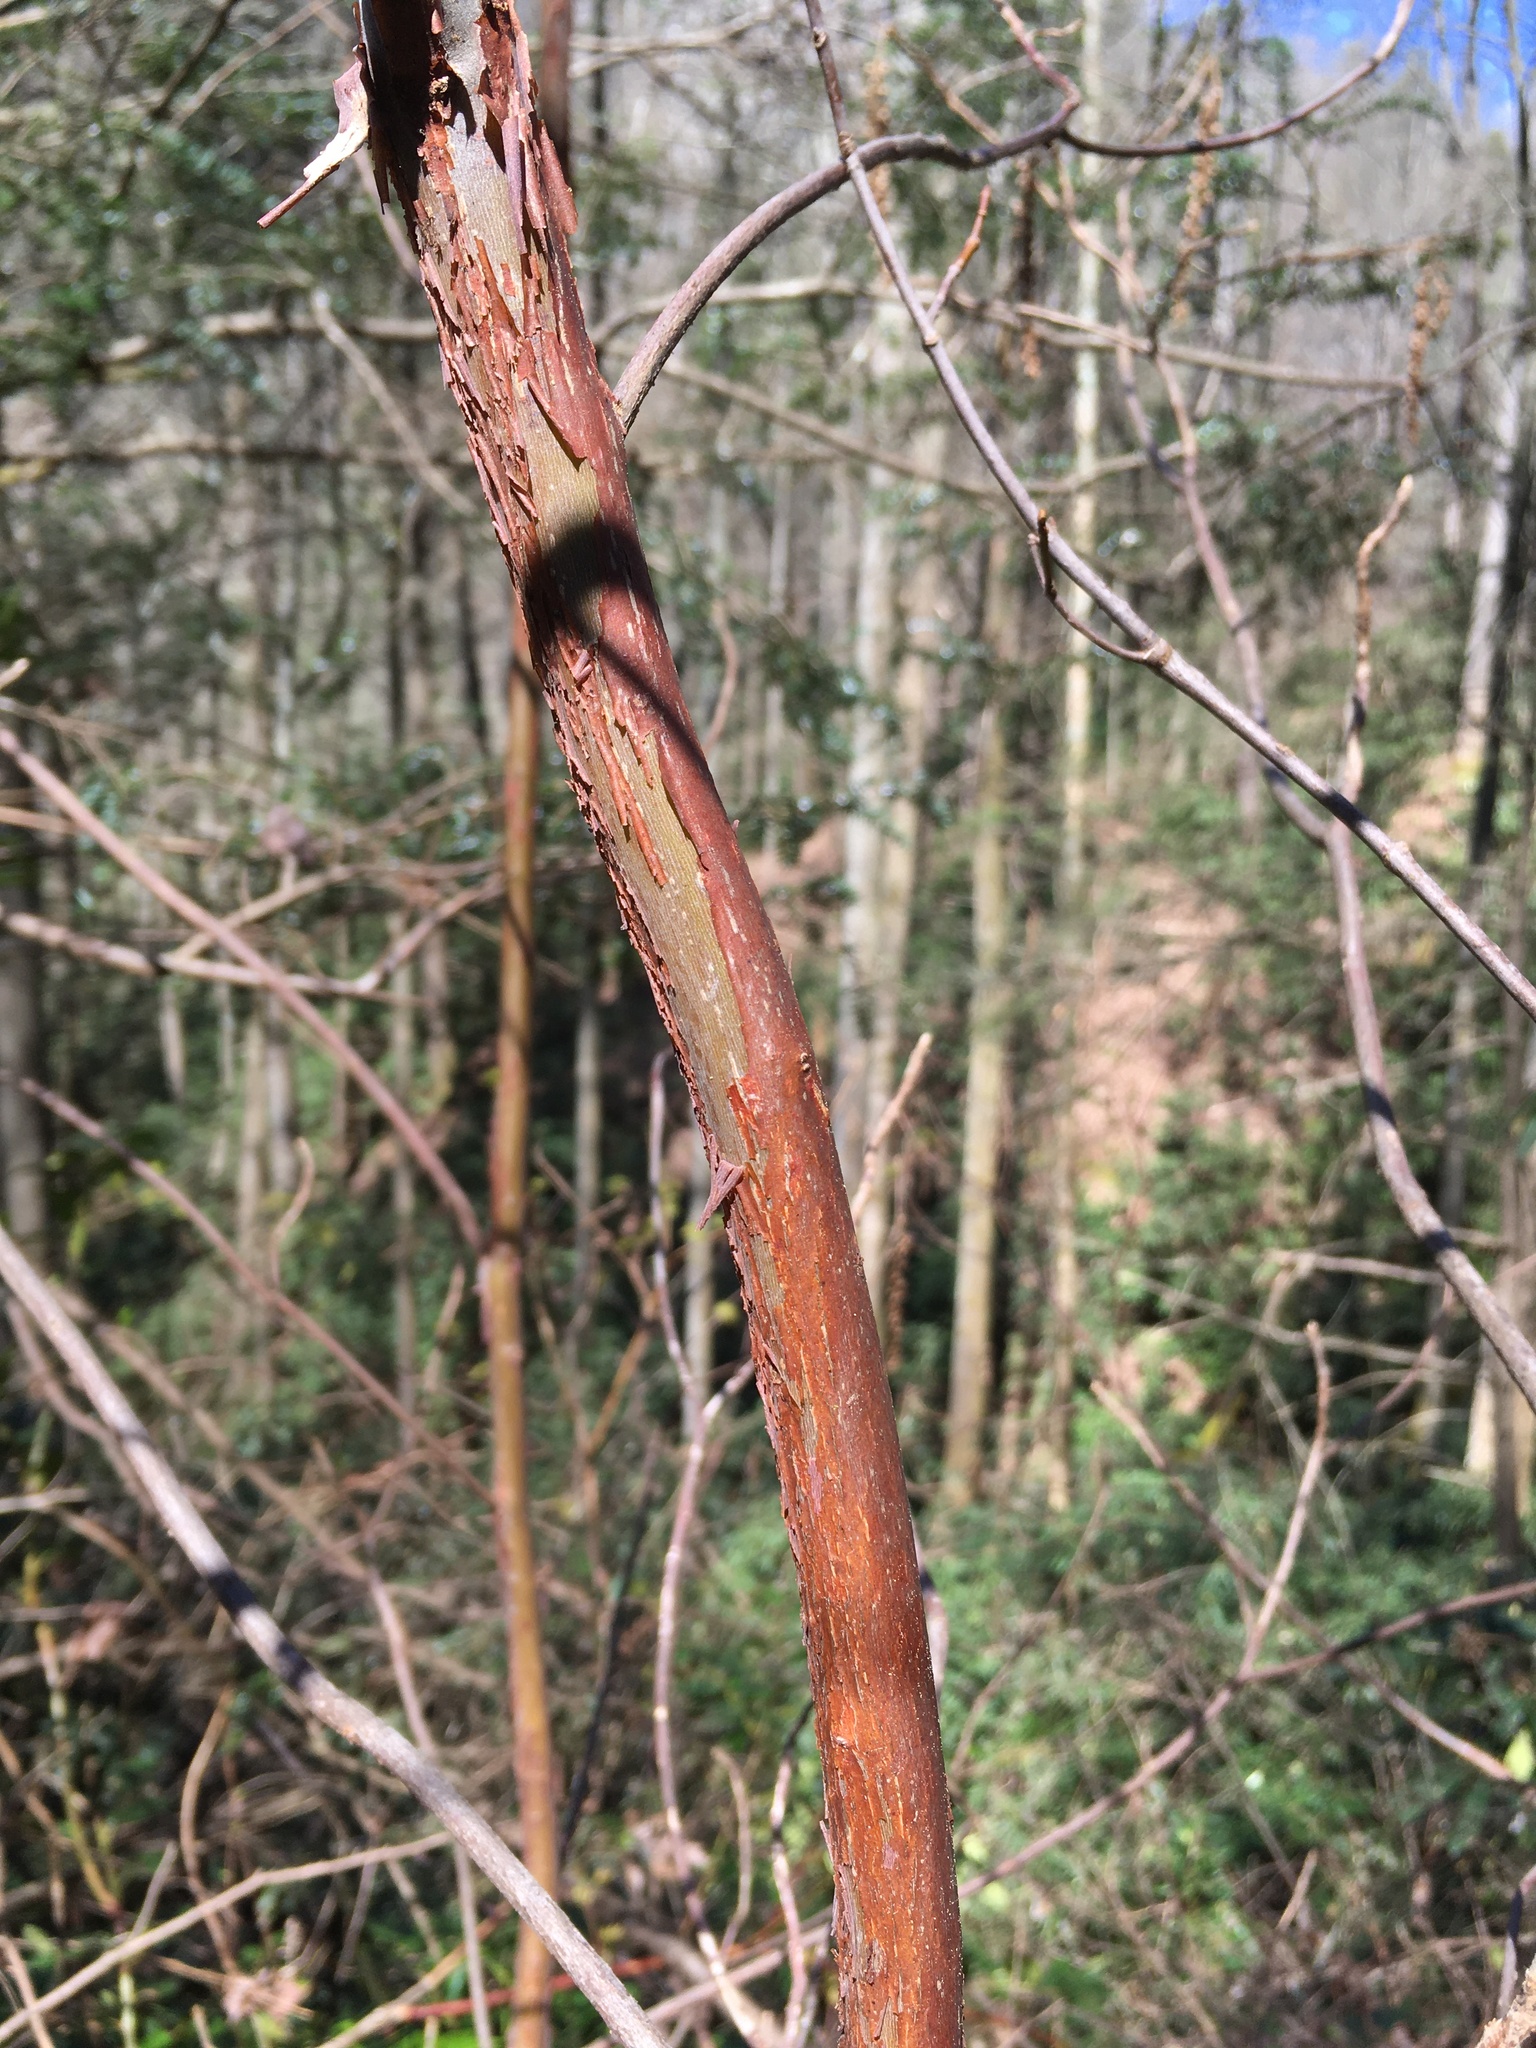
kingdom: Plantae
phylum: Tracheophyta
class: Magnoliopsida
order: Ericales
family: Clethraceae
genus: Clethra
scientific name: Clethra acuminata
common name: Mountain sweet pepperbush
